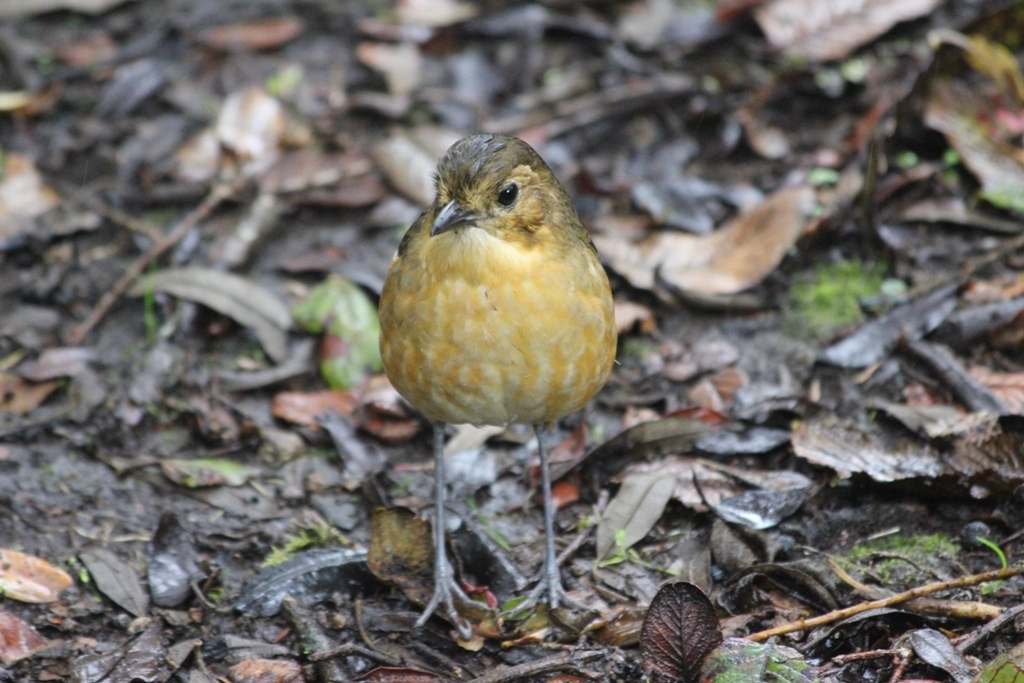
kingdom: Animalia
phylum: Chordata
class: Aves
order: Passeriformes
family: Grallariidae
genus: Grallaria
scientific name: Grallaria quitensis
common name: Tawny antpitta
